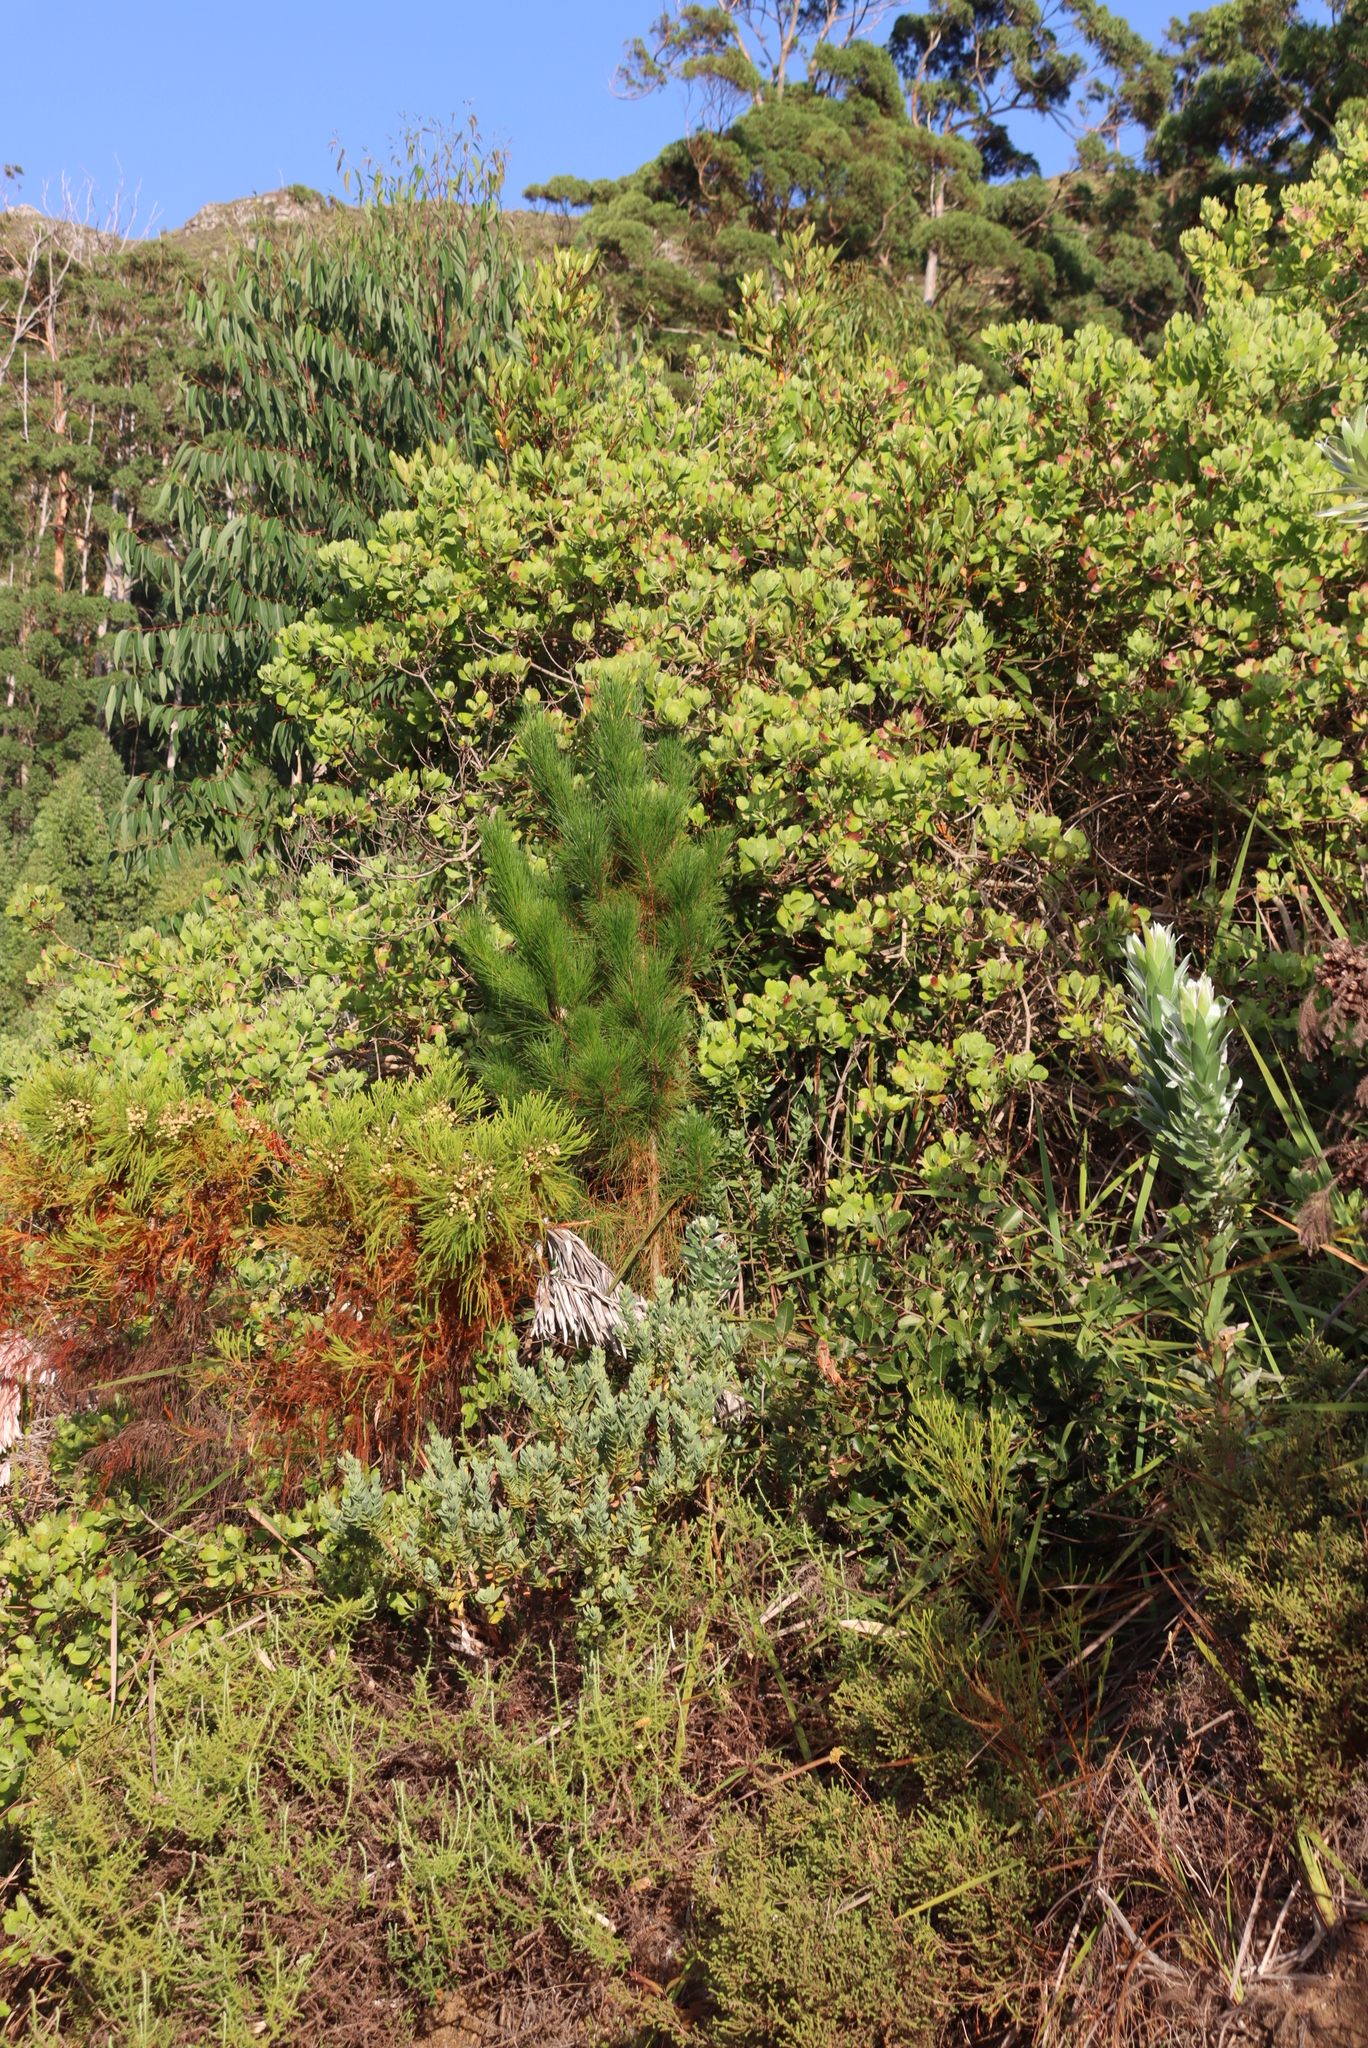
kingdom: Plantae
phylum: Tracheophyta
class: Pinopsida
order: Pinales
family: Pinaceae
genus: Pinus
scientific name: Pinus radiata
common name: Monterey pine
